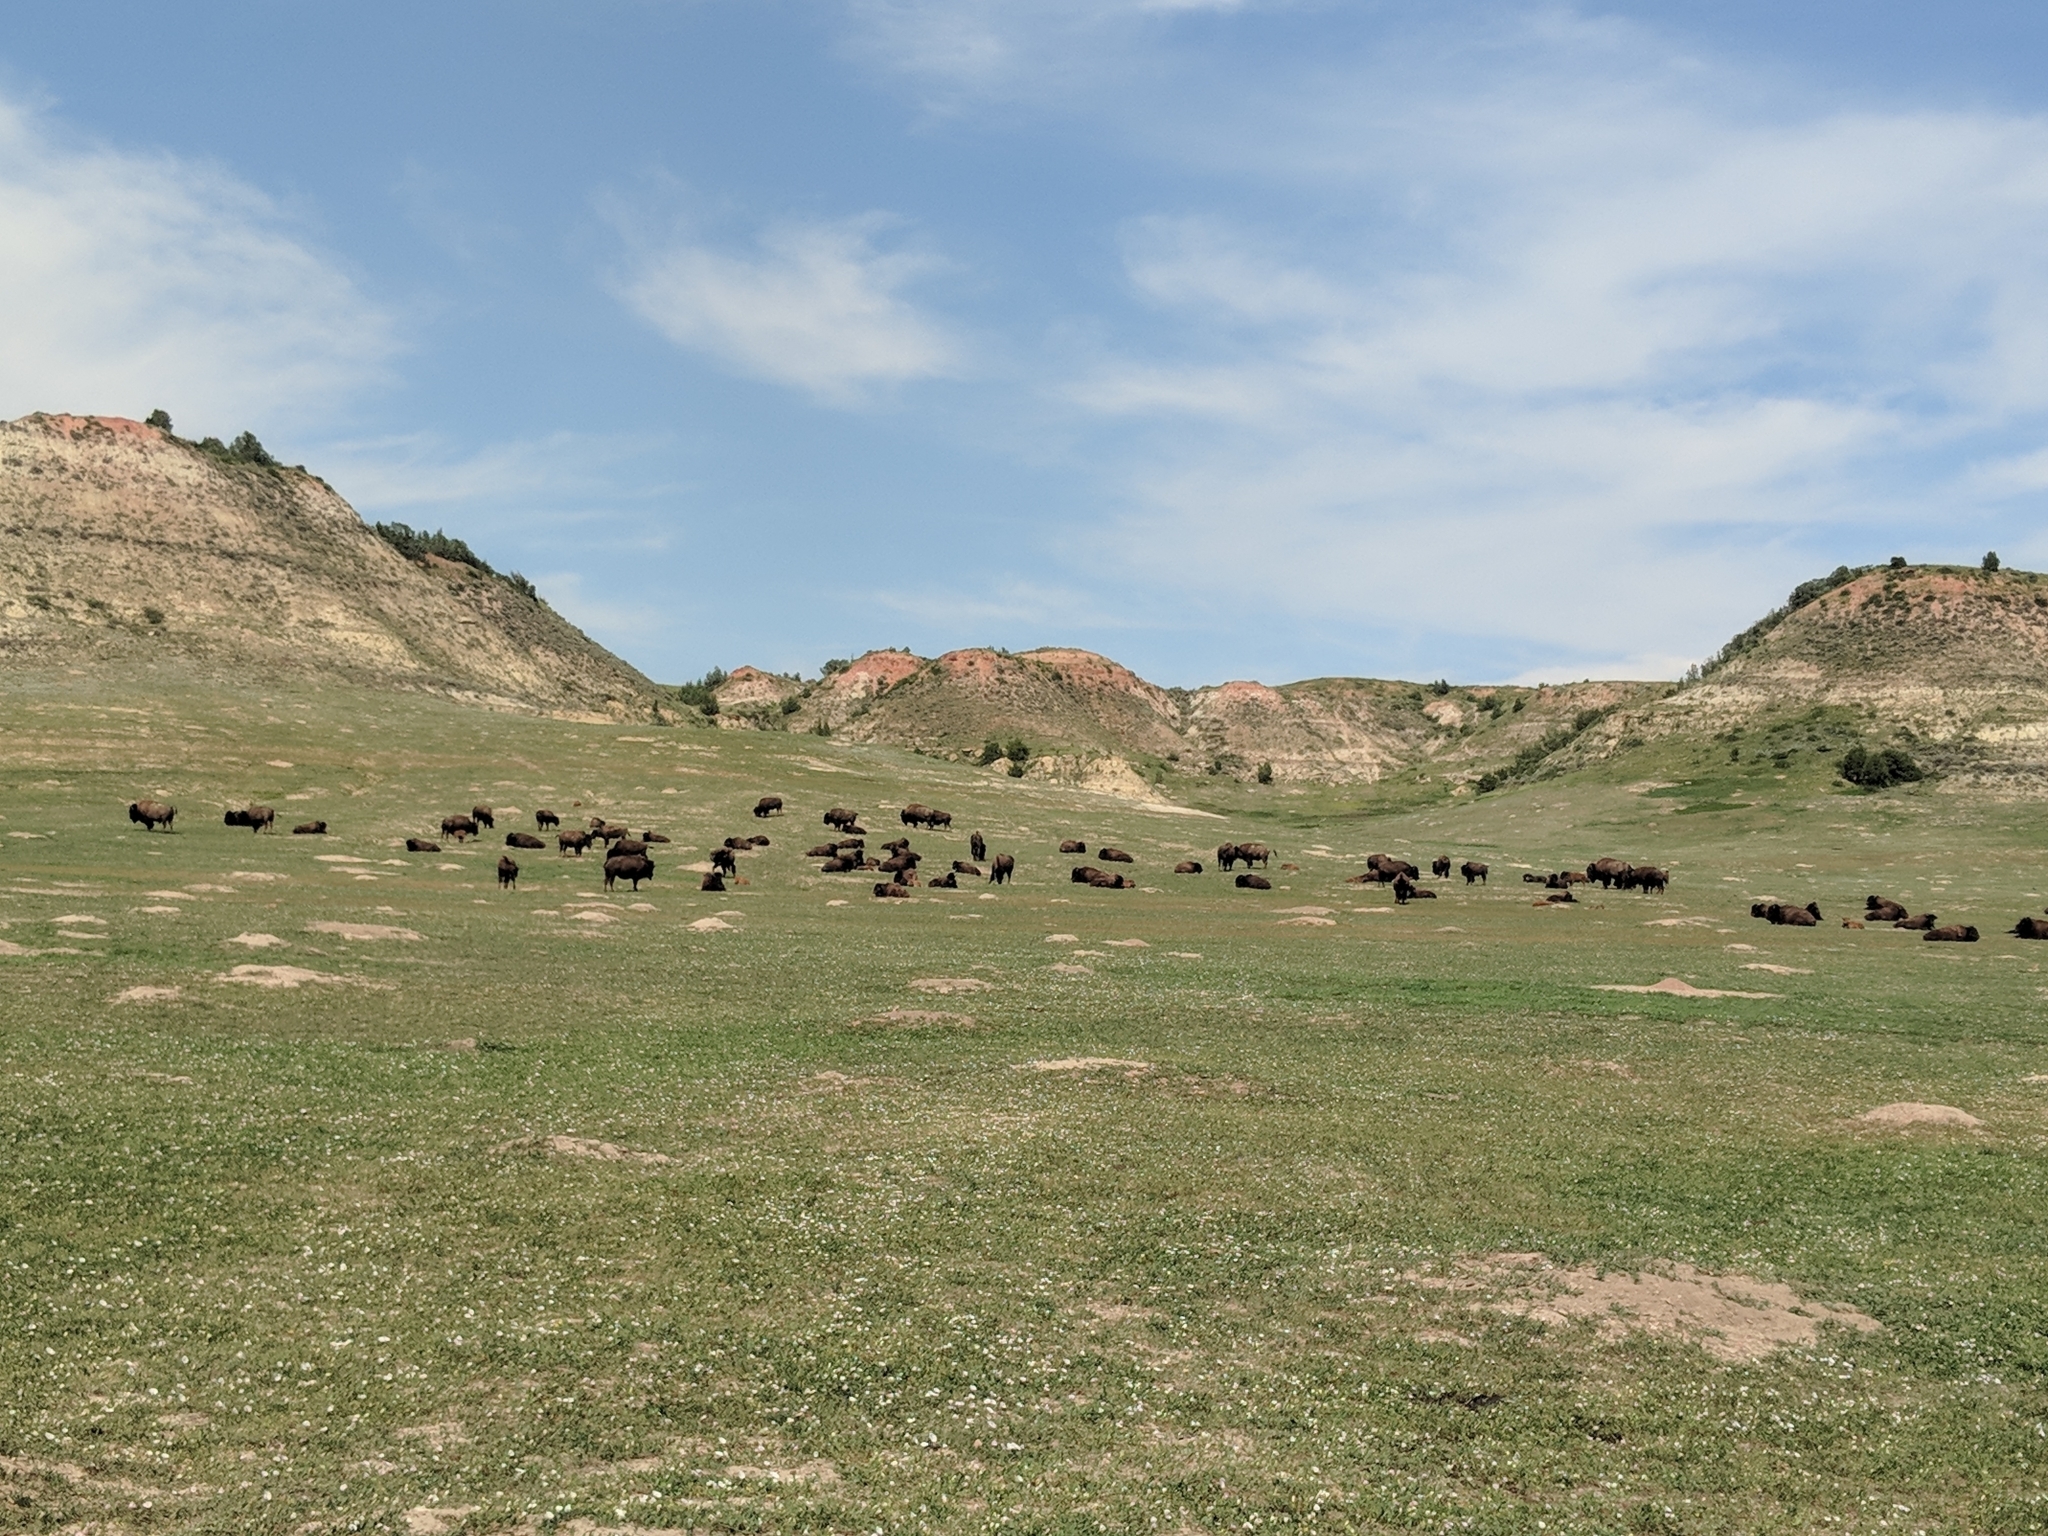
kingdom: Animalia
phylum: Chordata
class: Mammalia
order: Artiodactyla
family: Bovidae
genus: Bison
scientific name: Bison bison
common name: American bison
